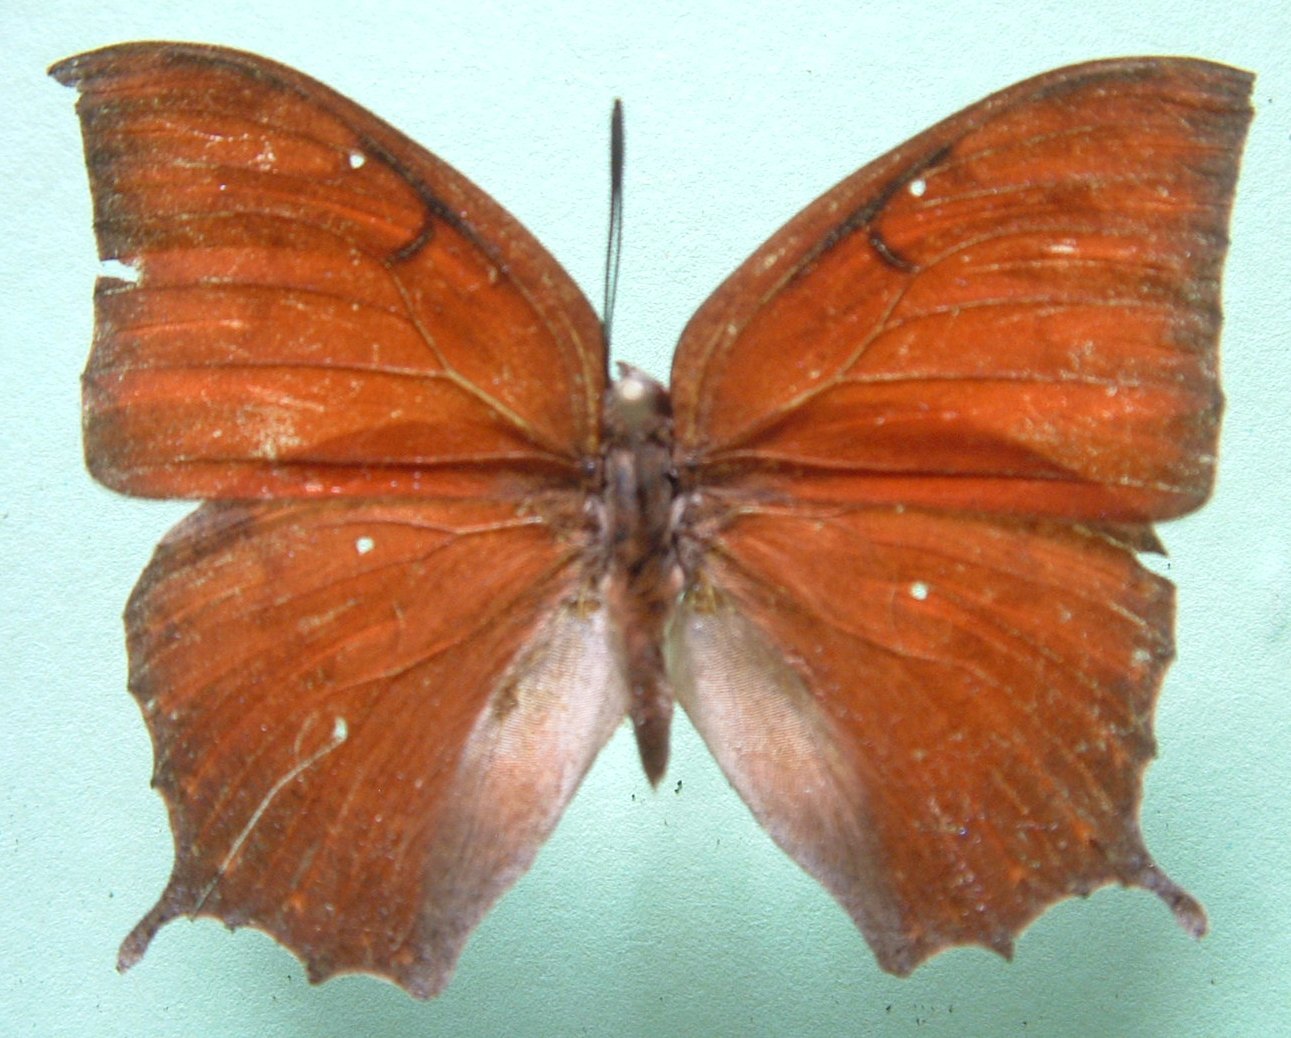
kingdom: Animalia
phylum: Arthropoda
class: Insecta
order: Lepidoptera
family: Nymphalidae
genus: Anaea
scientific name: Anaea aidea
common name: Tropical leafwing
